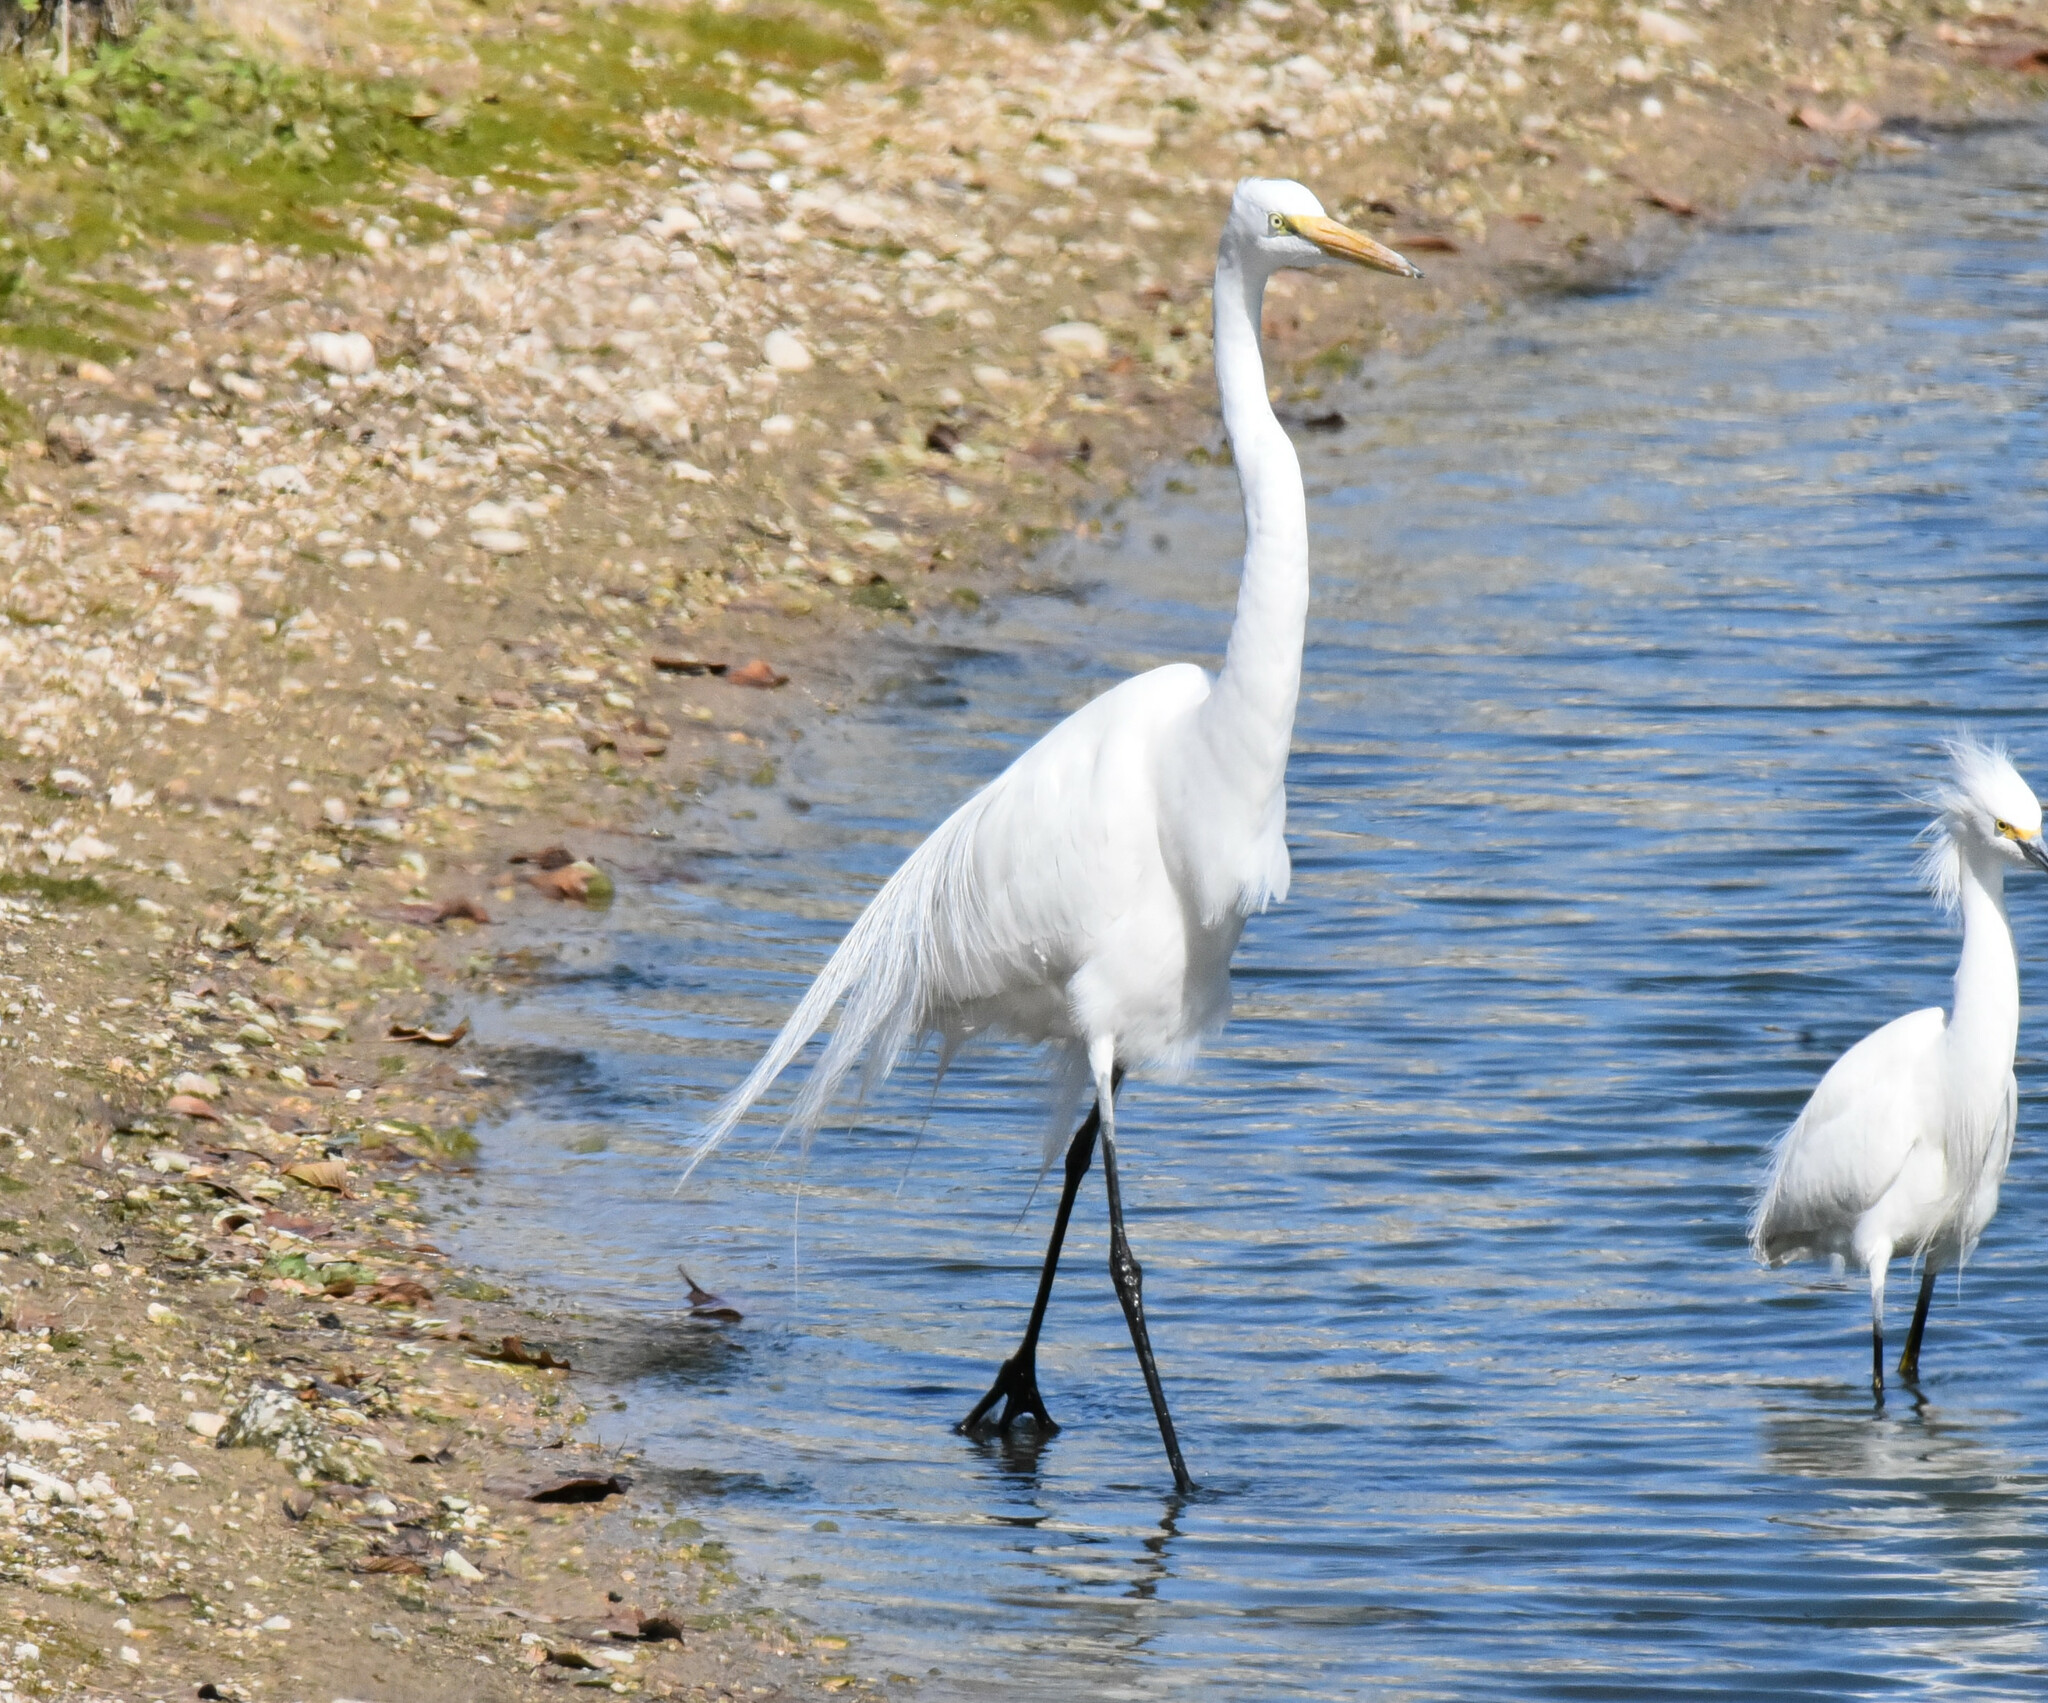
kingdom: Animalia
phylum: Chordata
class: Aves
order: Pelecaniformes
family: Ardeidae
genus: Ardea
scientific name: Ardea alba
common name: Great egret
